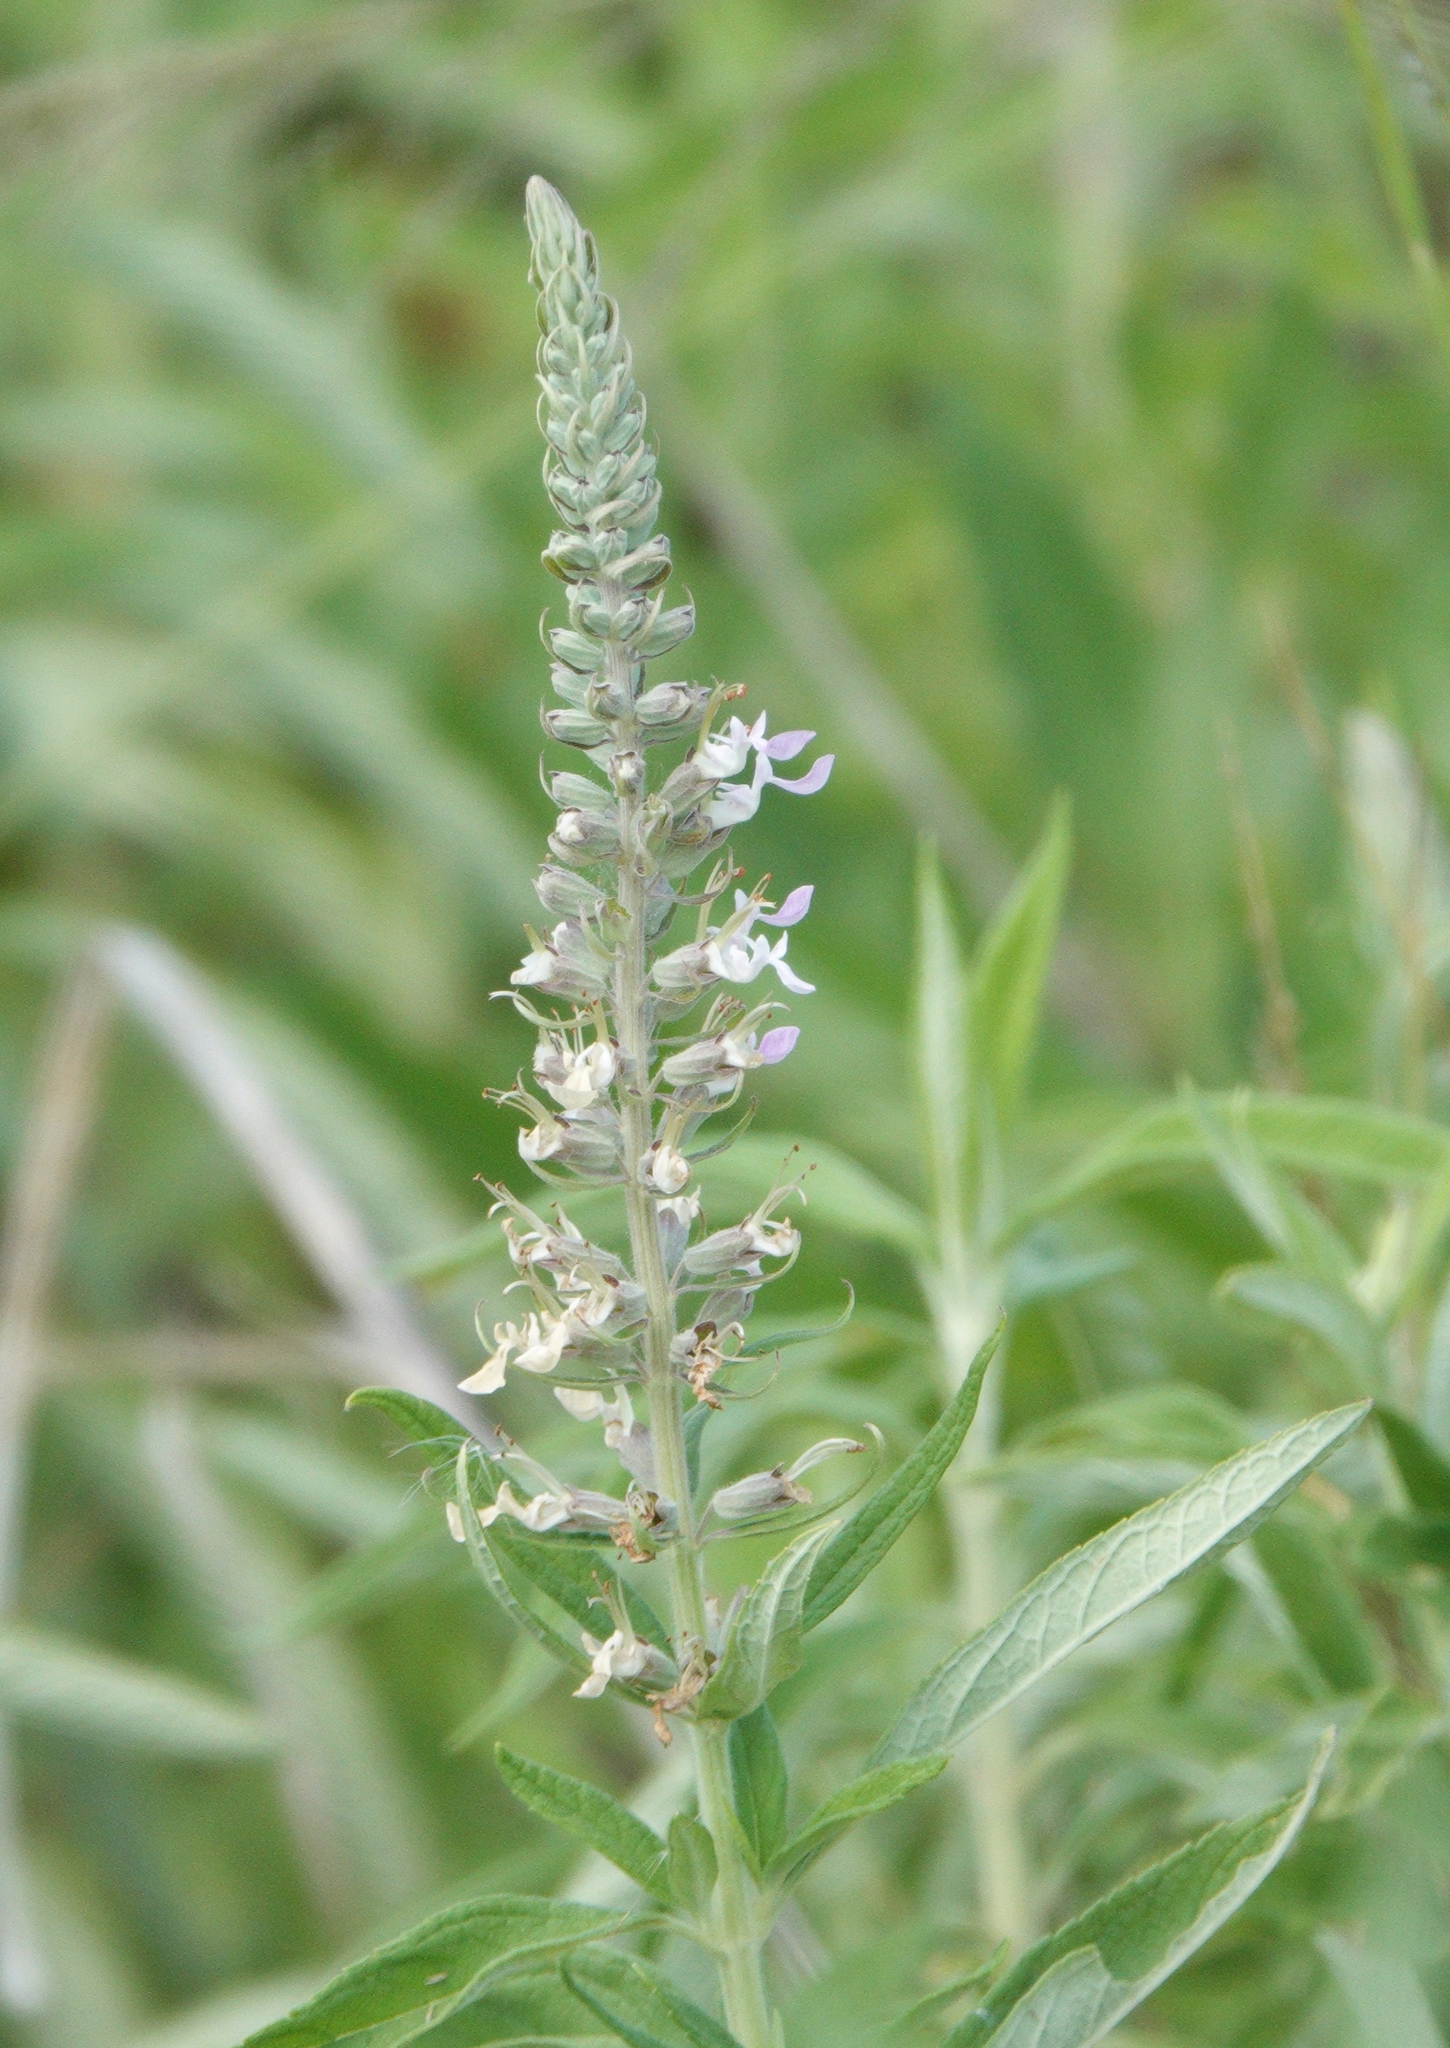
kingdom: Plantae
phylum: Tracheophyta
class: Magnoliopsida
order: Lamiales
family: Lamiaceae
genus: Teucrium
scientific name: Teucrium canadense
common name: American germander
